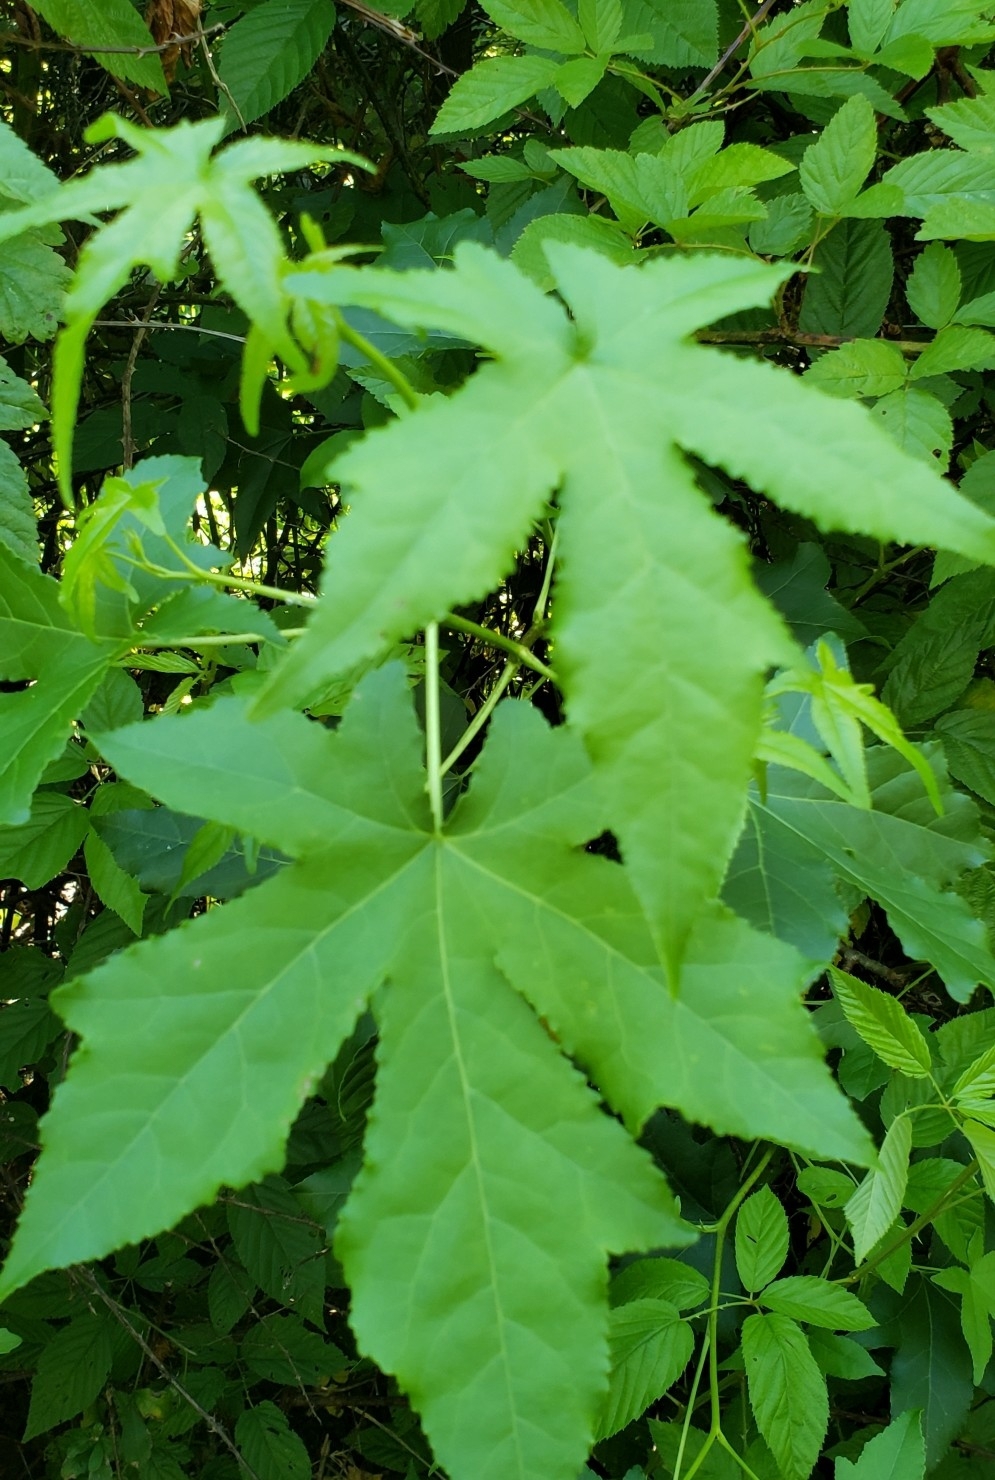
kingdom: Plantae
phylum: Tracheophyta
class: Magnoliopsida
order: Saxifragales
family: Altingiaceae
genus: Liquidambar
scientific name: Liquidambar styraciflua
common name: Sweet gum
